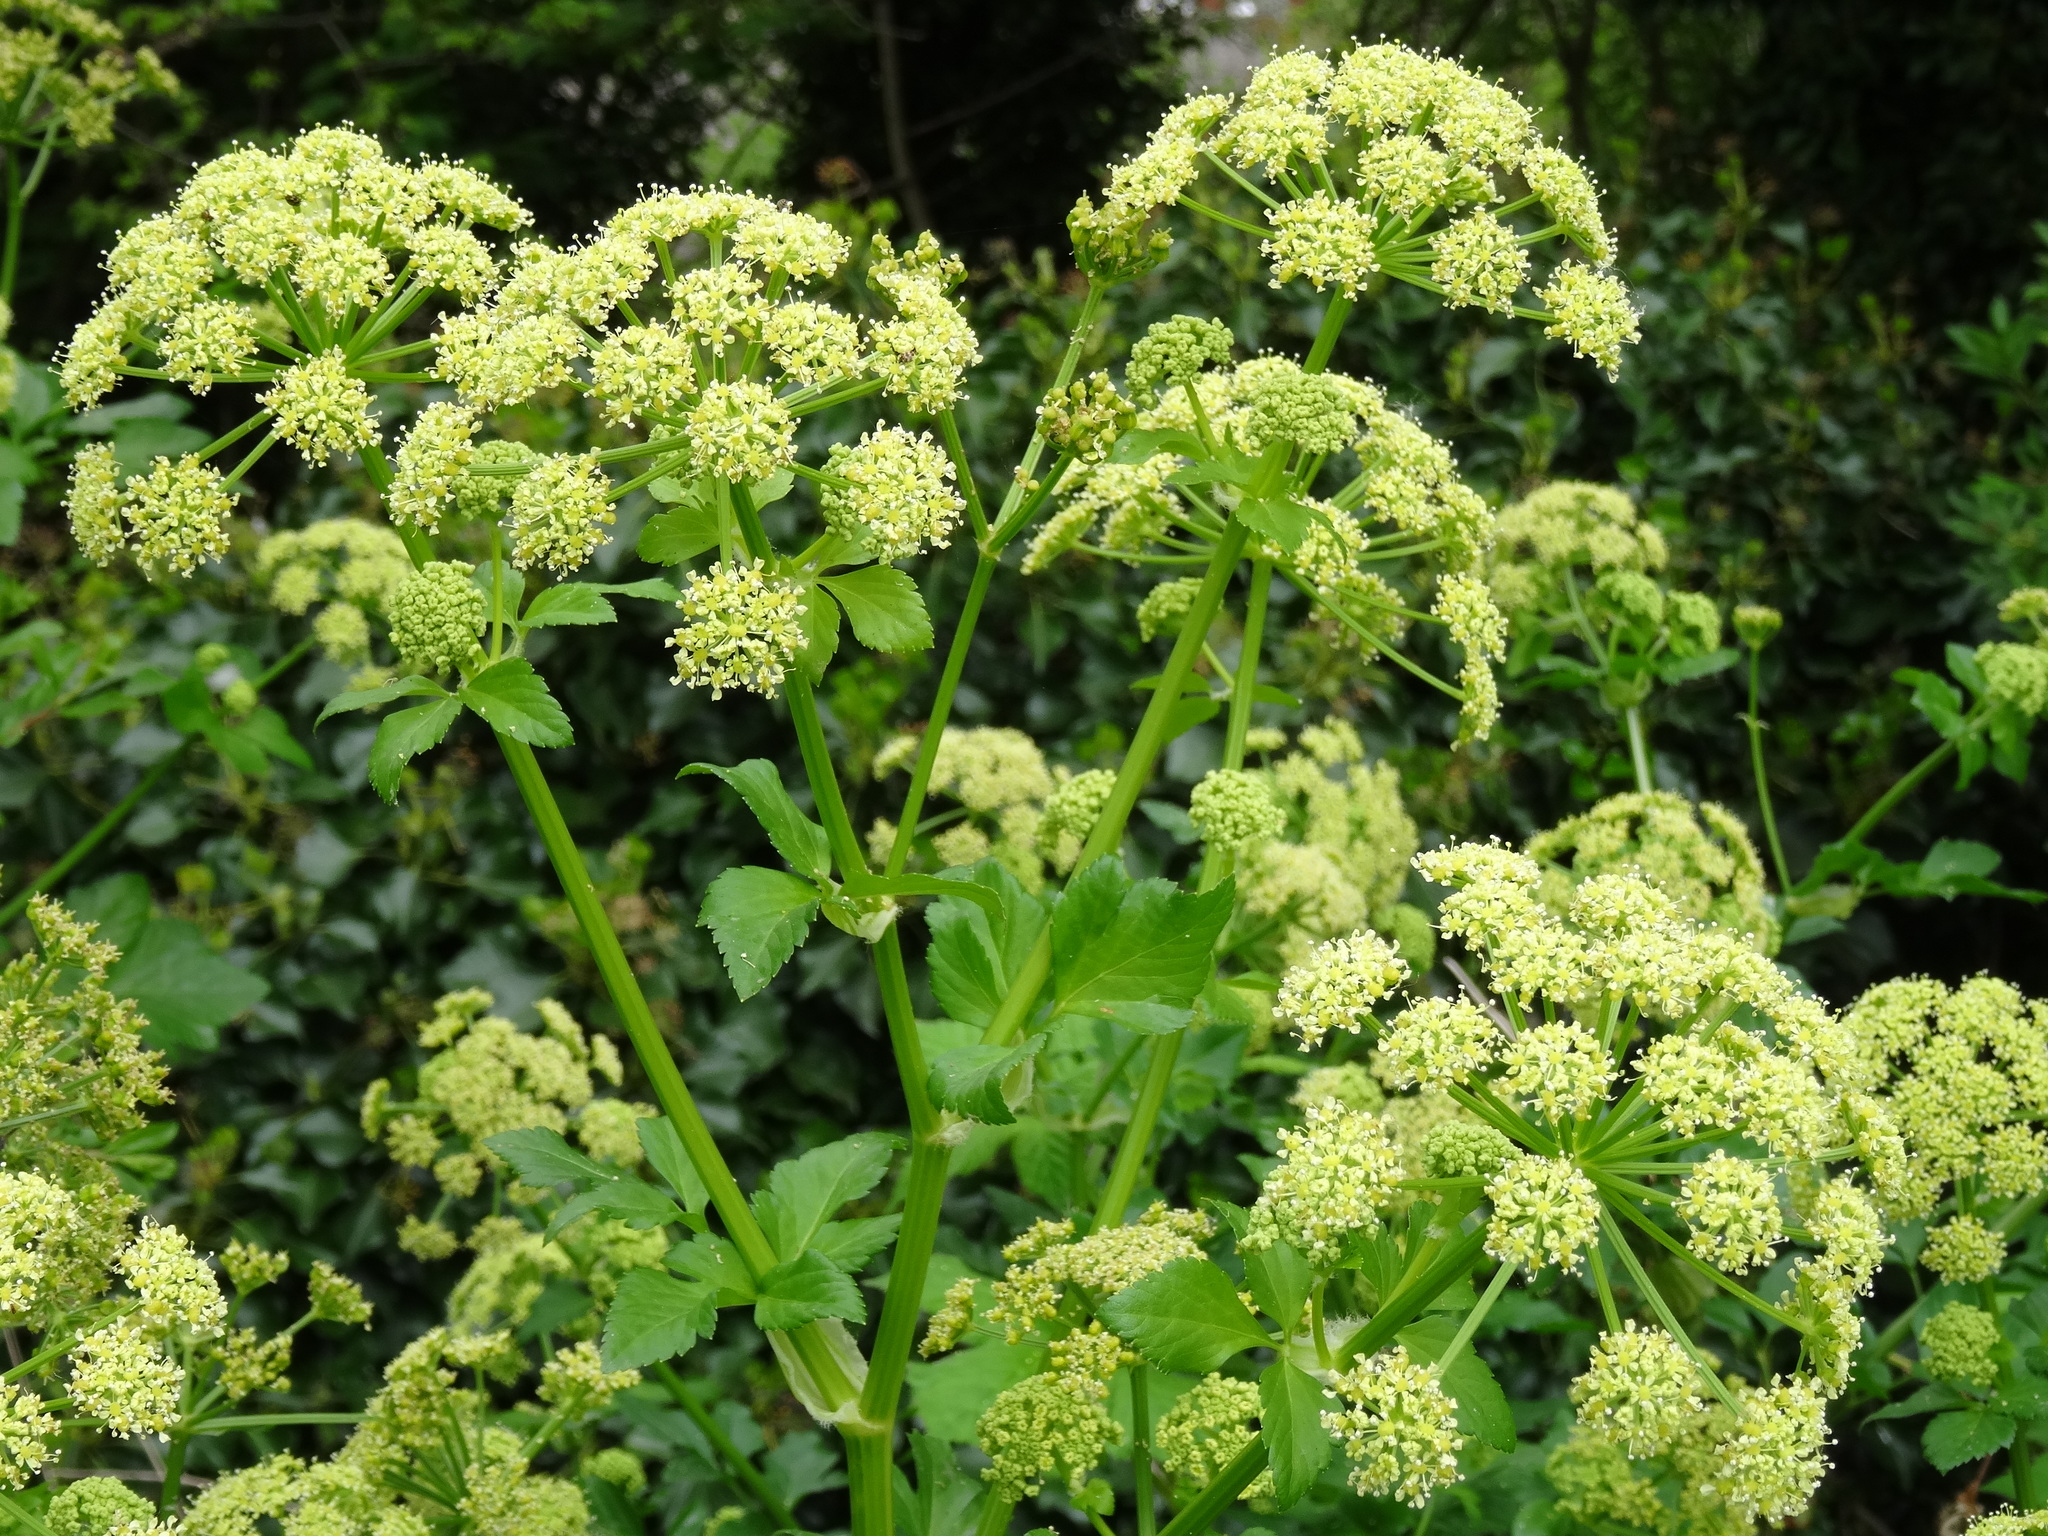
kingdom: Plantae
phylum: Tracheophyta
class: Magnoliopsida
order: Apiales
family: Apiaceae
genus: Smyrnium
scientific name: Smyrnium olusatrum
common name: Alexanders
